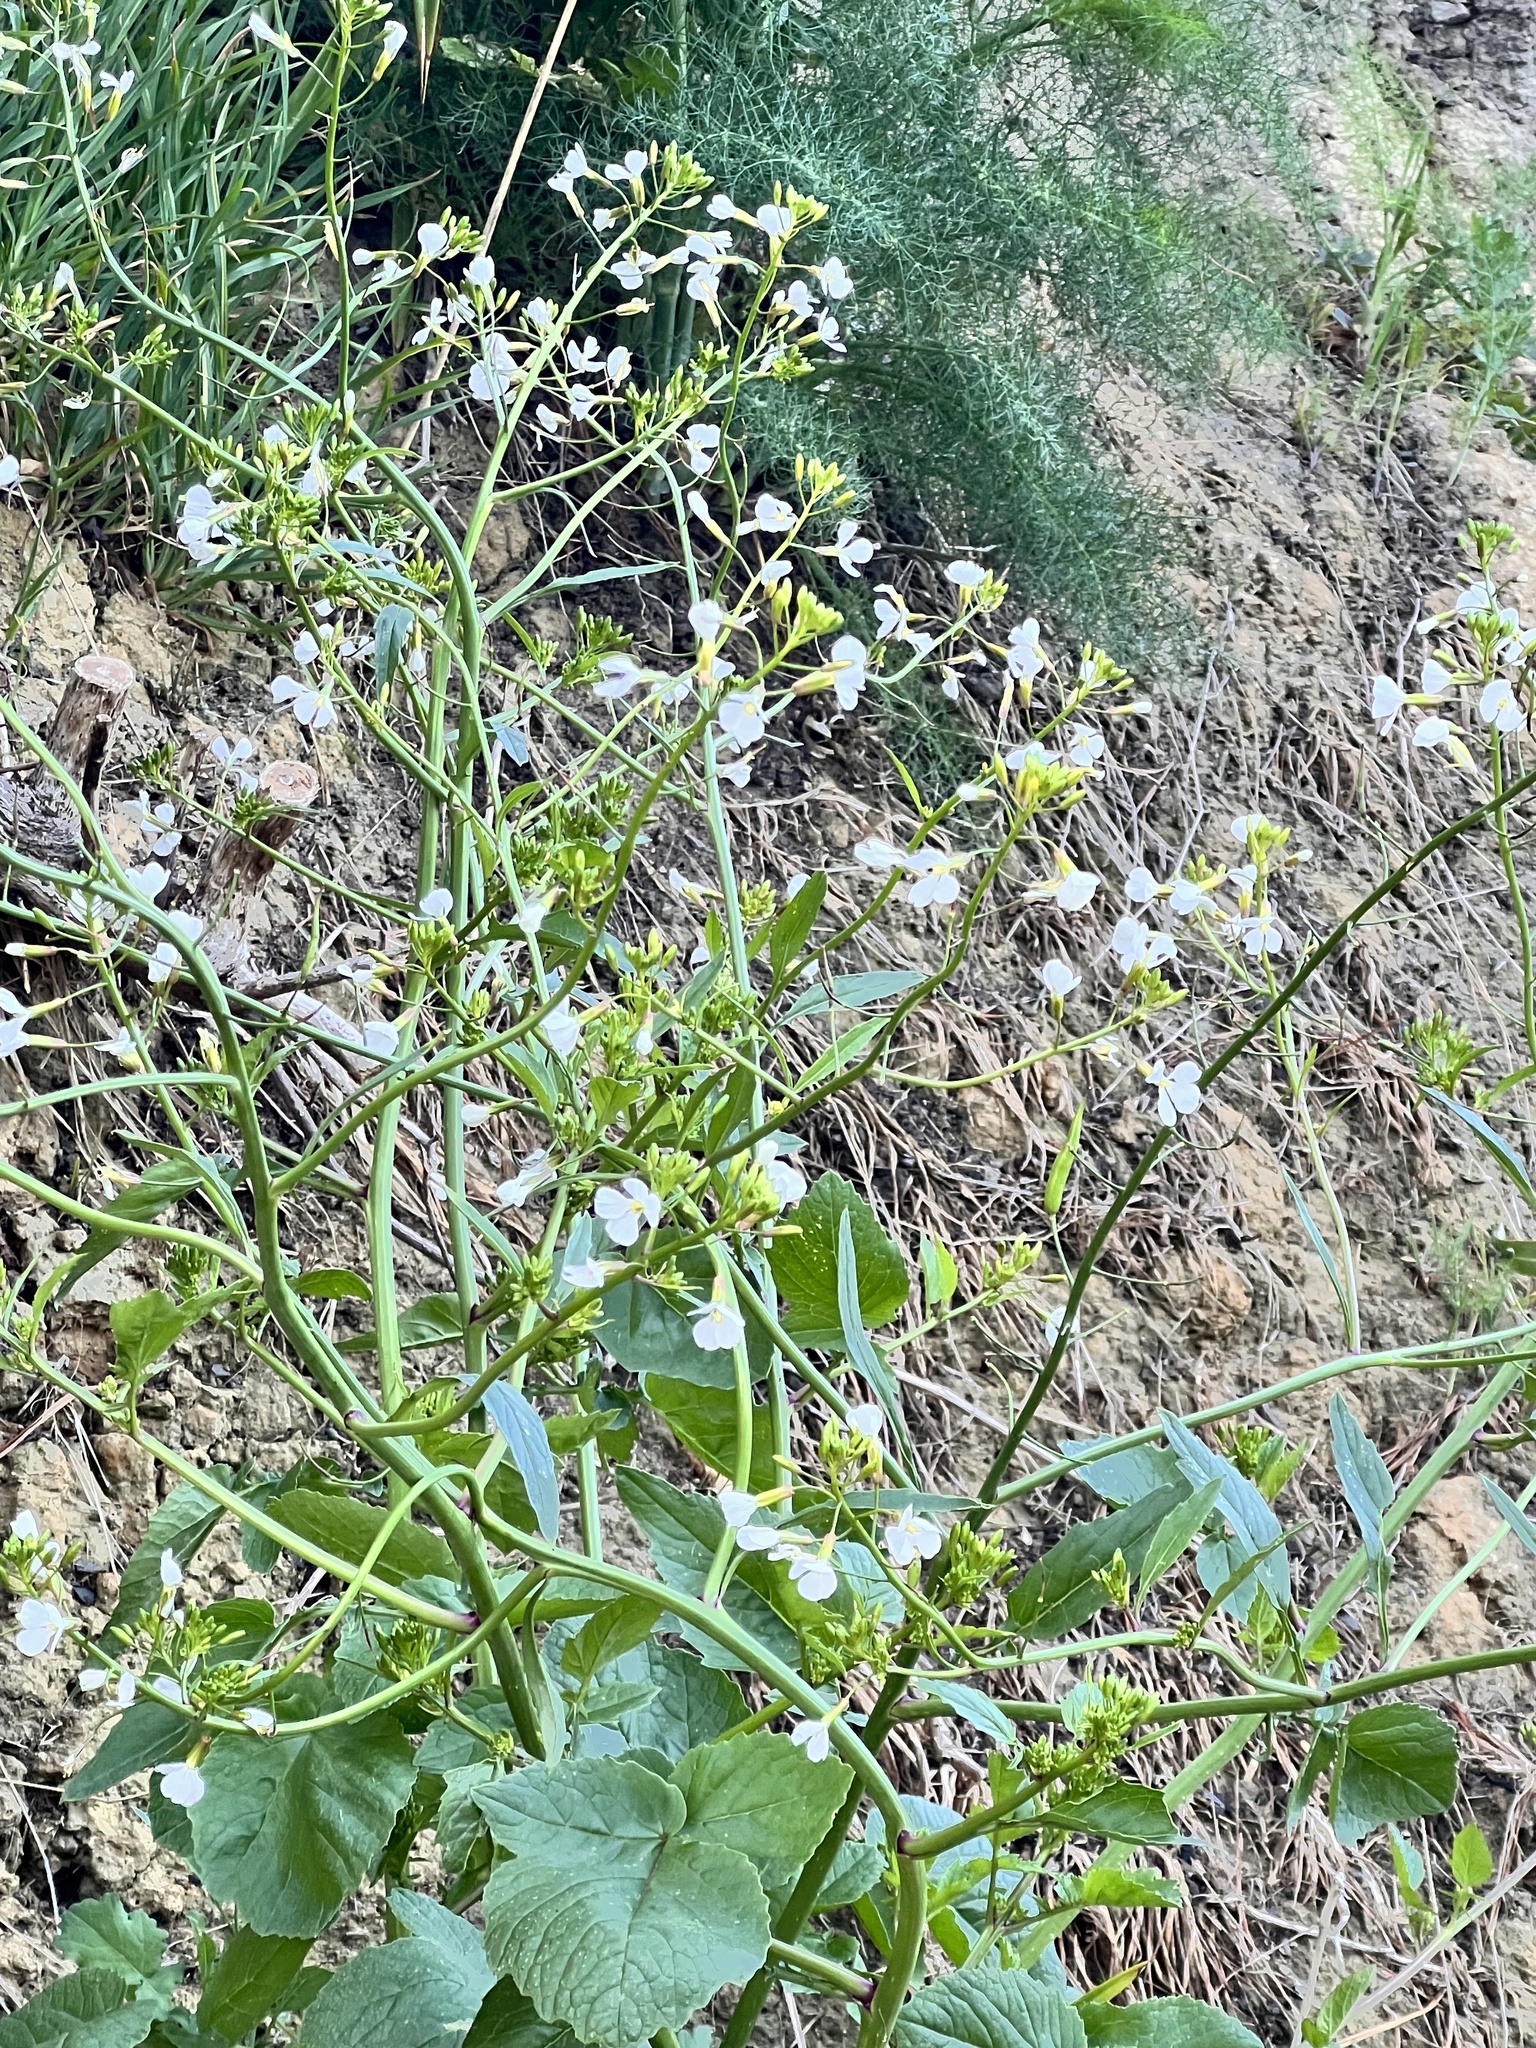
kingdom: Plantae
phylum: Tracheophyta
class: Magnoliopsida
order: Brassicales
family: Brassicaceae
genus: Raphanus
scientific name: Raphanus raphanistrum
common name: Wild radish
